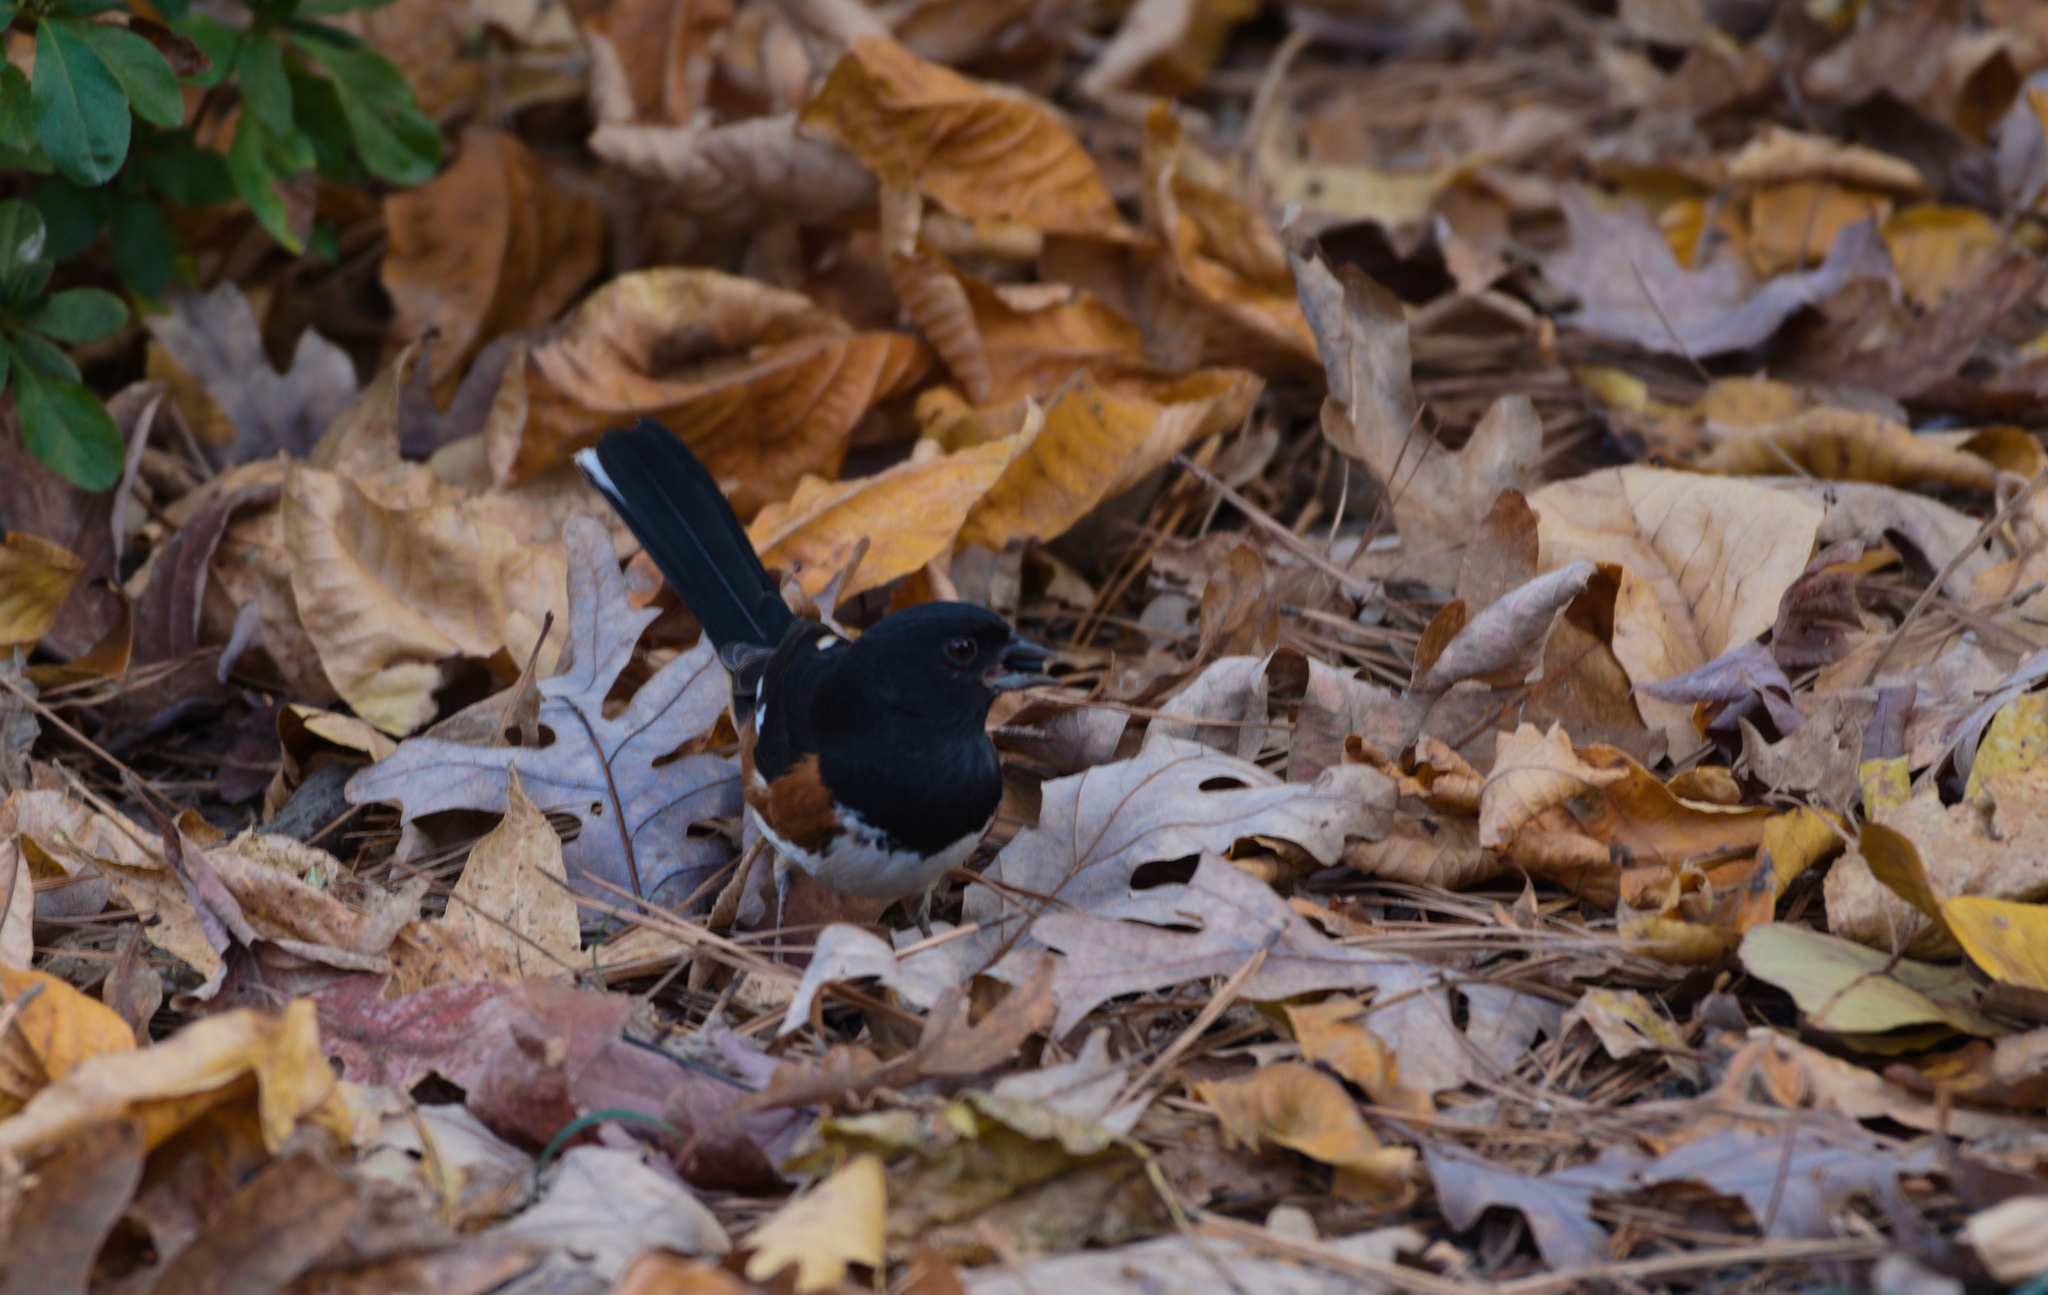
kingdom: Animalia
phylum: Chordata
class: Aves
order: Passeriformes
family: Passerellidae
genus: Pipilo
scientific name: Pipilo erythrophthalmus
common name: Eastern towhee
